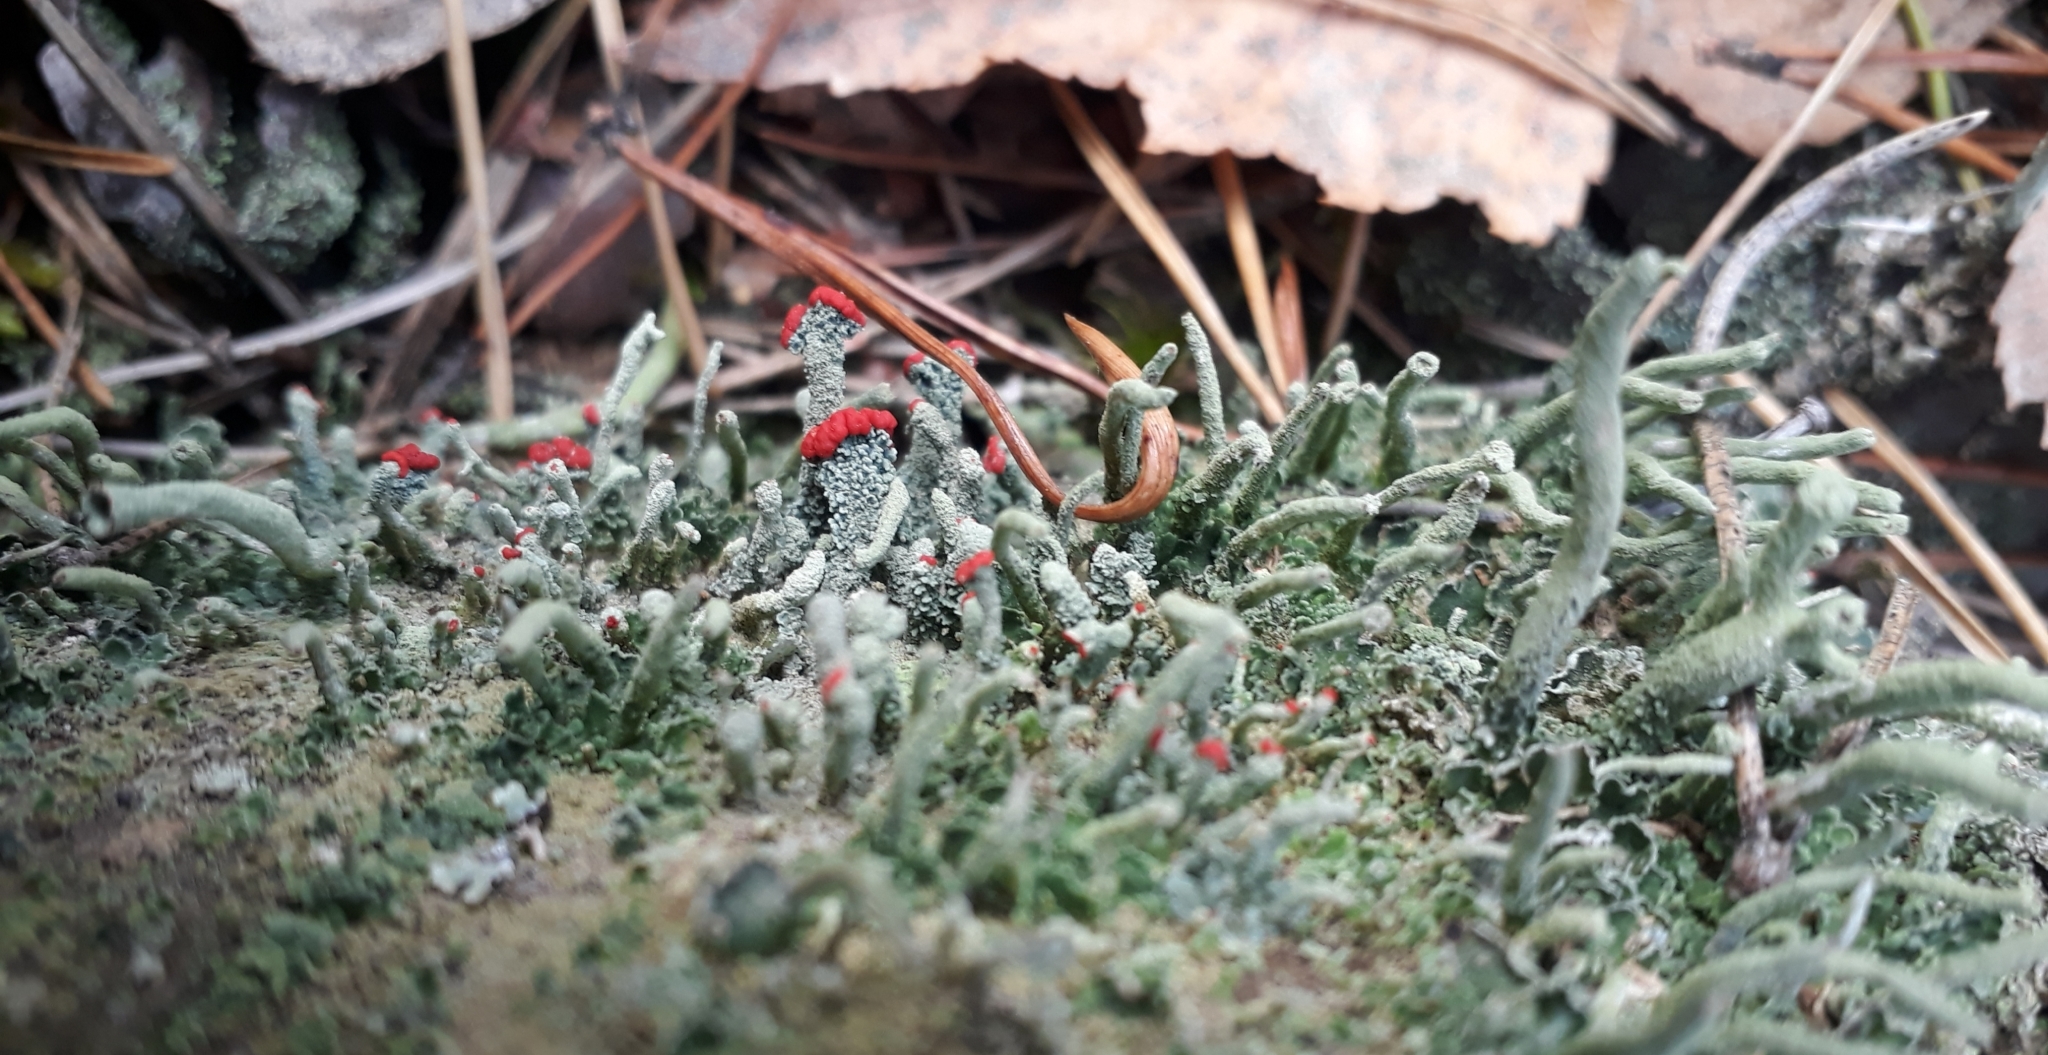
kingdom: Fungi
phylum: Ascomycota
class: Lecanoromycetes
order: Lecanorales
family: Cladoniaceae
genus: Cladonia
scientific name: Cladonia floerkeana
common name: Gritty british soldiers lichen
